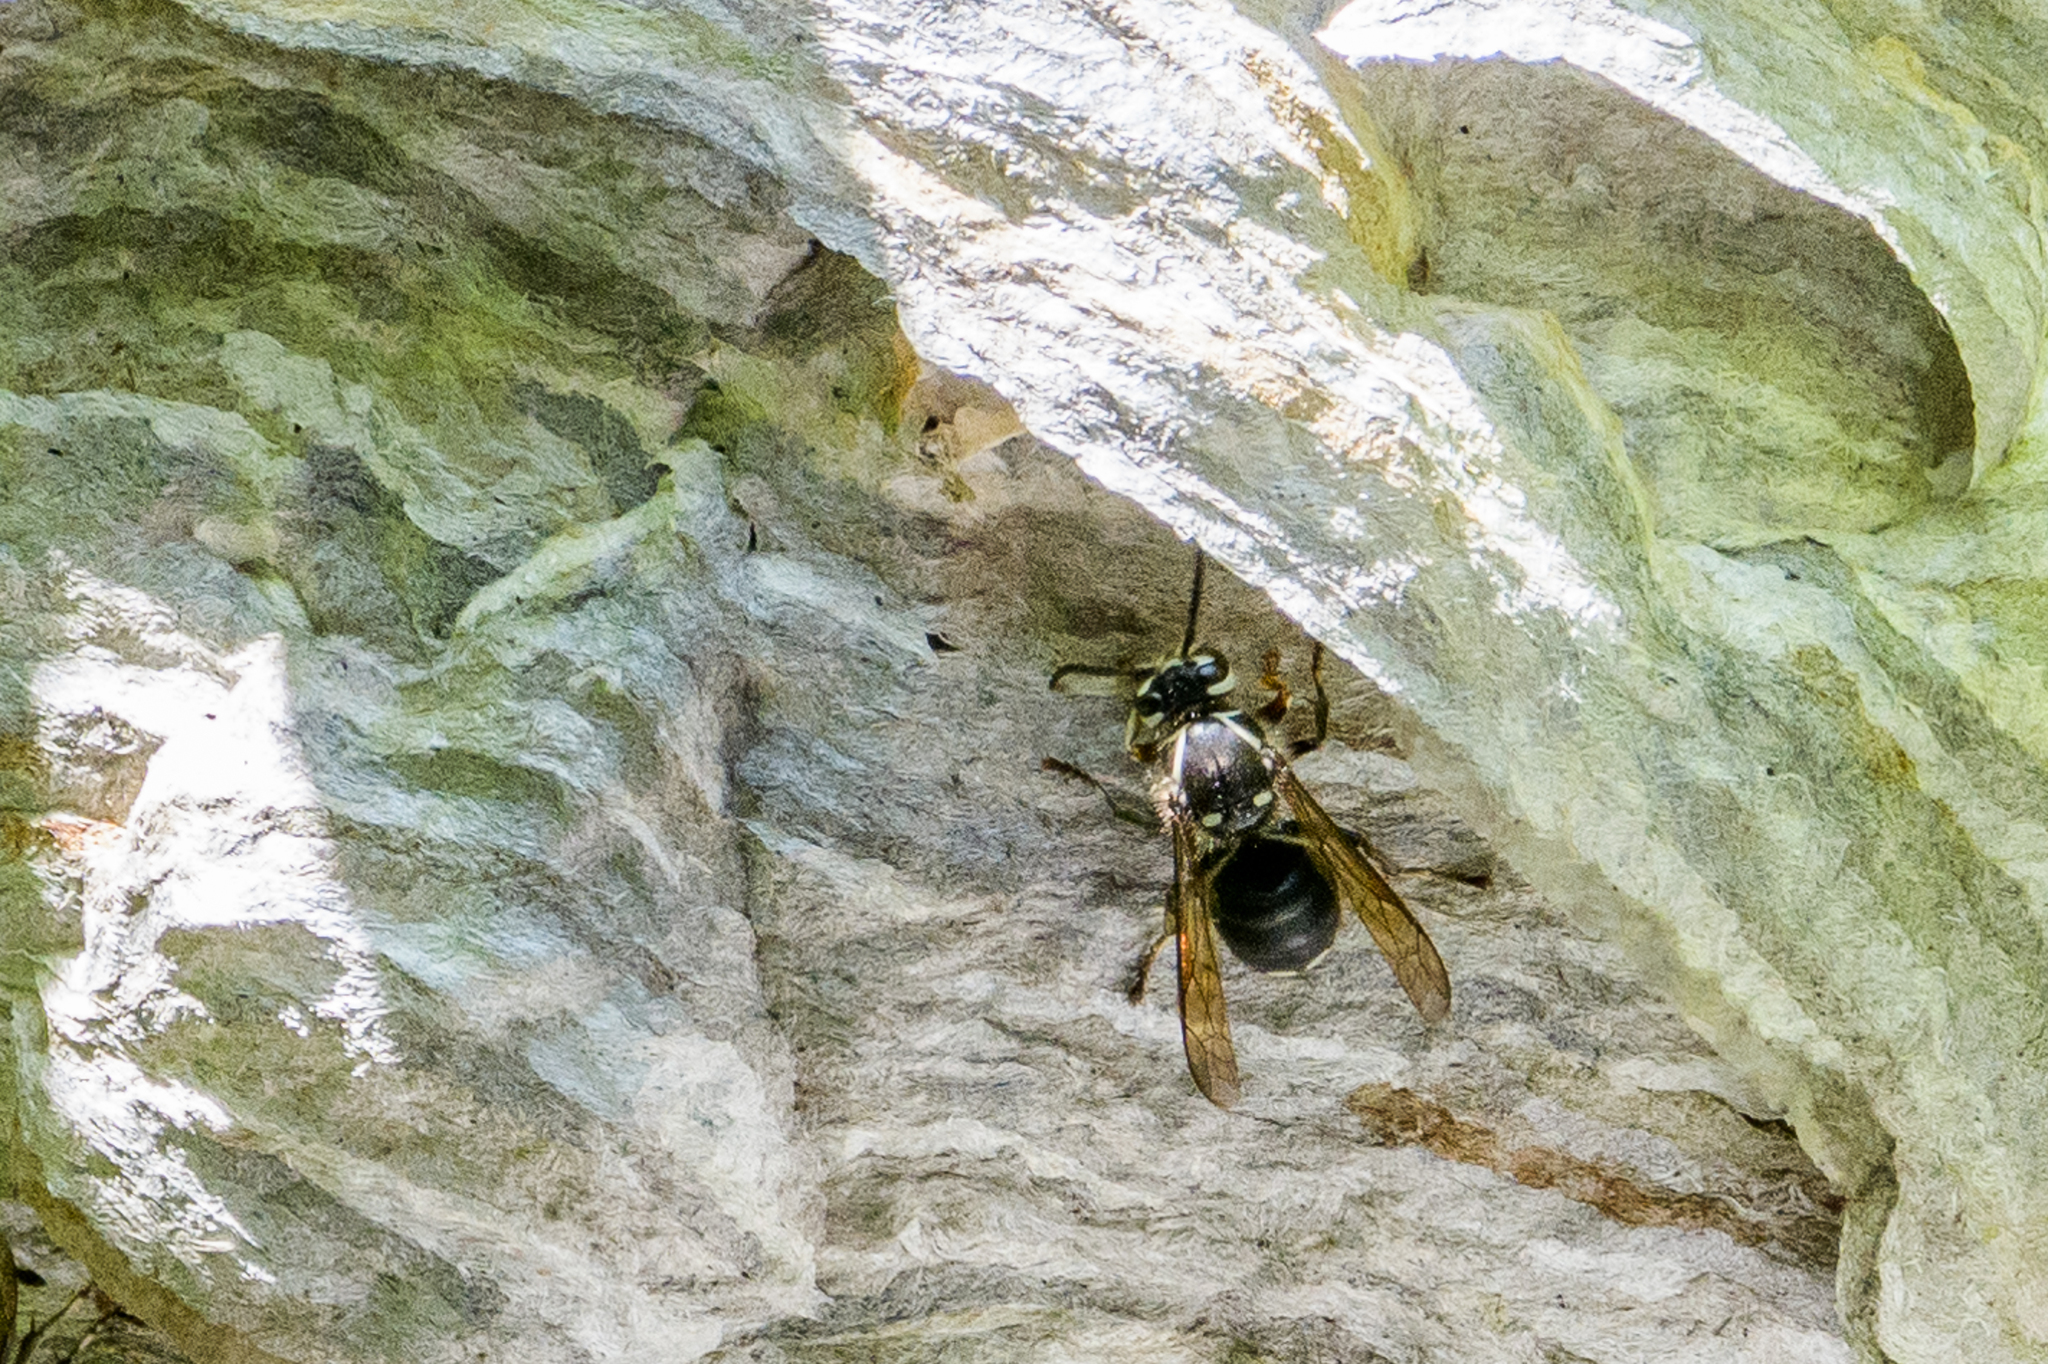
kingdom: Animalia
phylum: Arthropoda
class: Insecta
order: Hymenoptera
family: Vespidae
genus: Dolichovespula
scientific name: Dolichovespula maculata
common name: Bald-faced hornet
